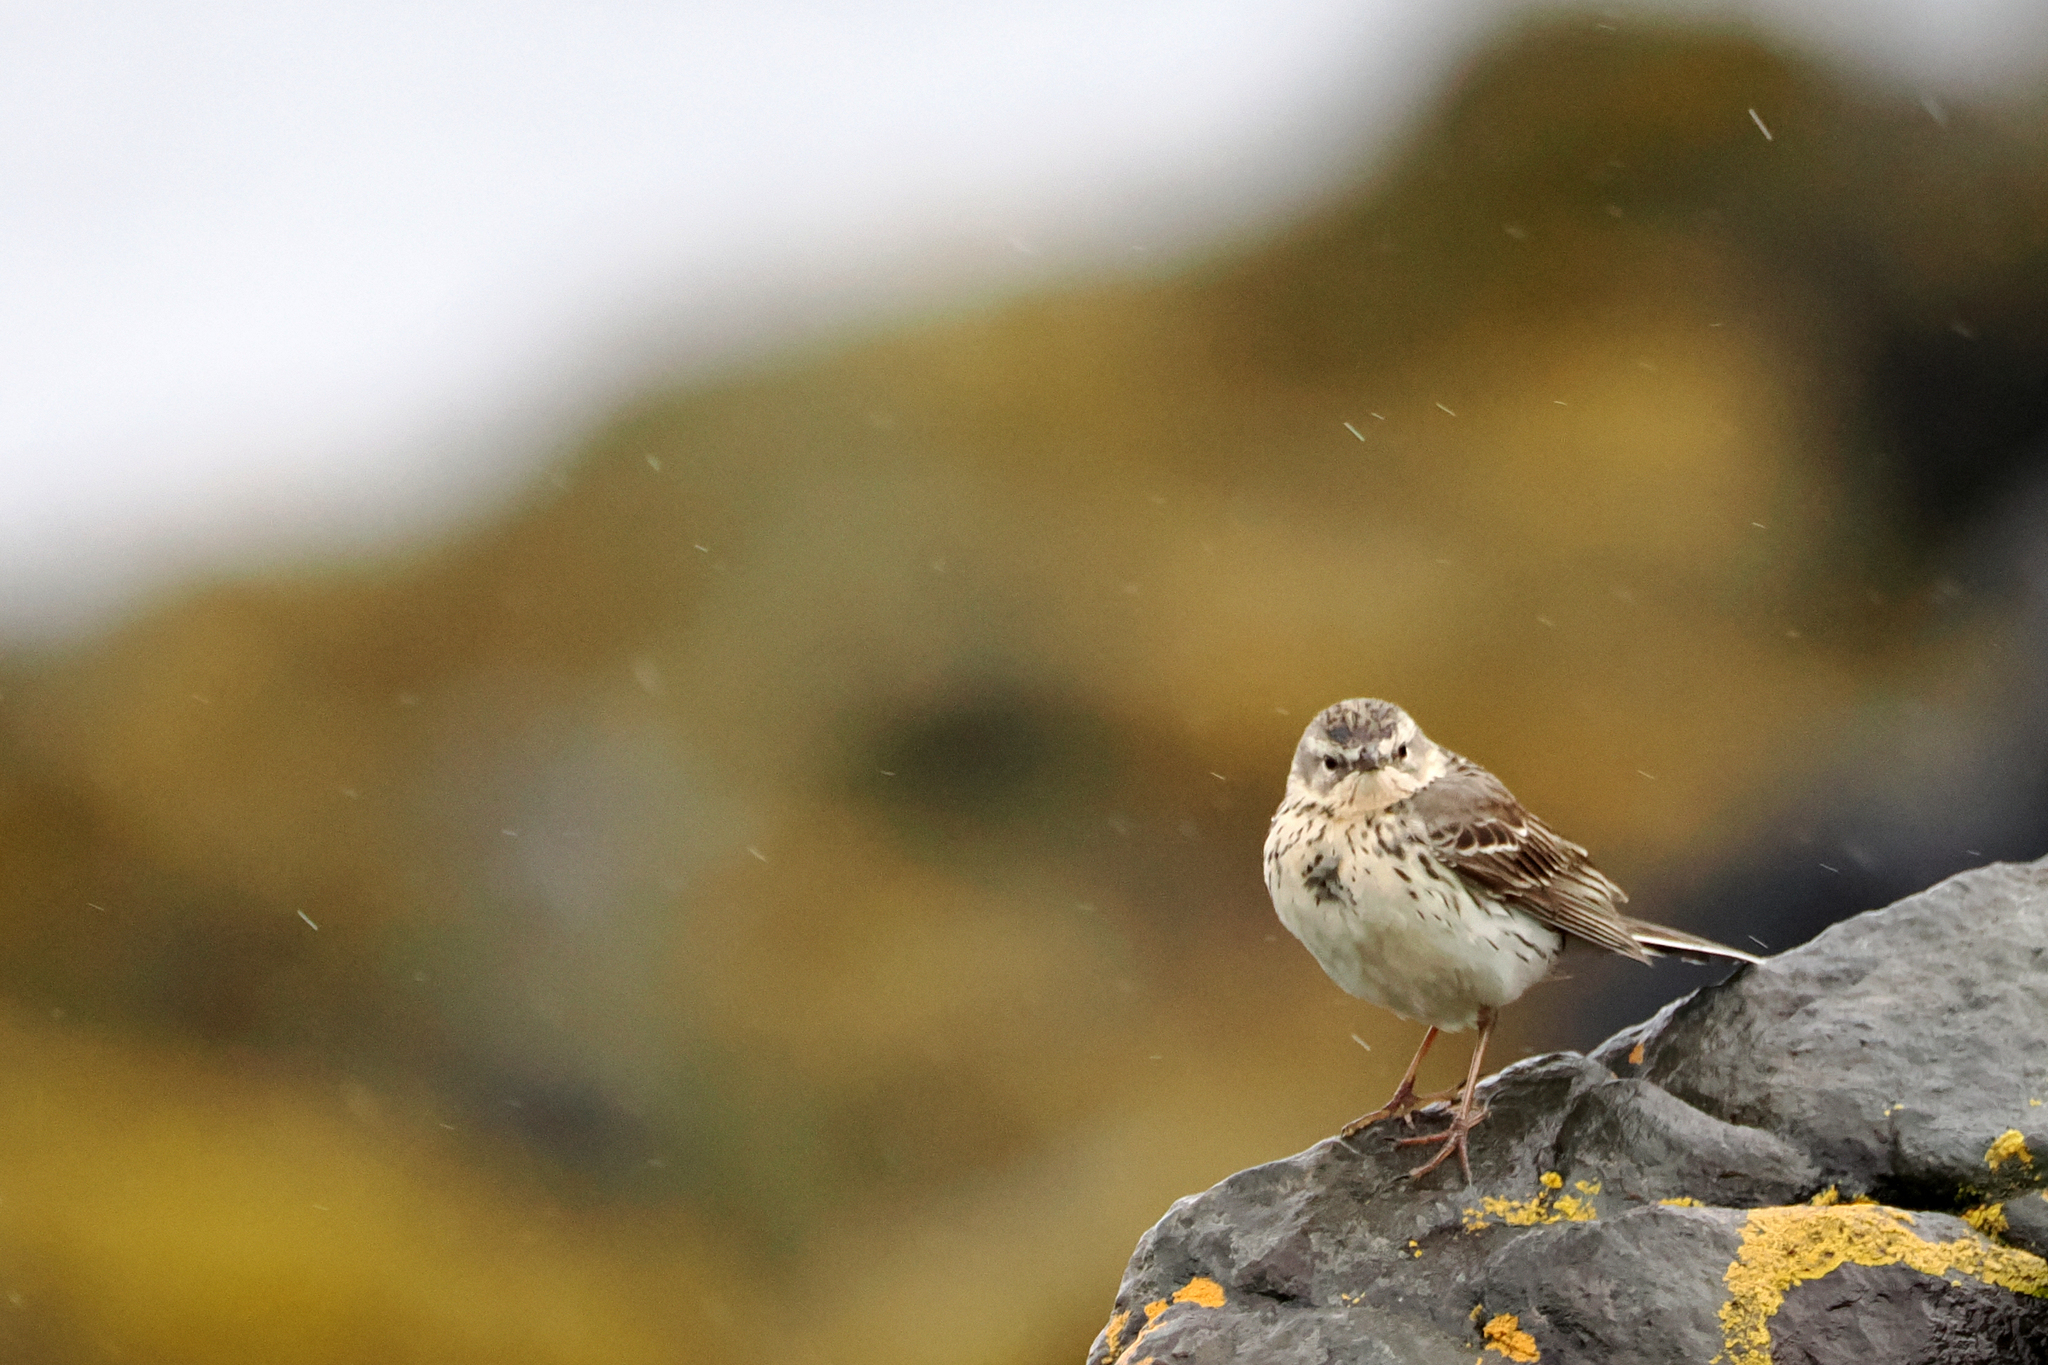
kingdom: Animalia
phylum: Chordata
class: Aves
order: Passeriformes
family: Motacillidae
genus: Anthus
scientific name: Anthus pratensis
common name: Meadow pipit
